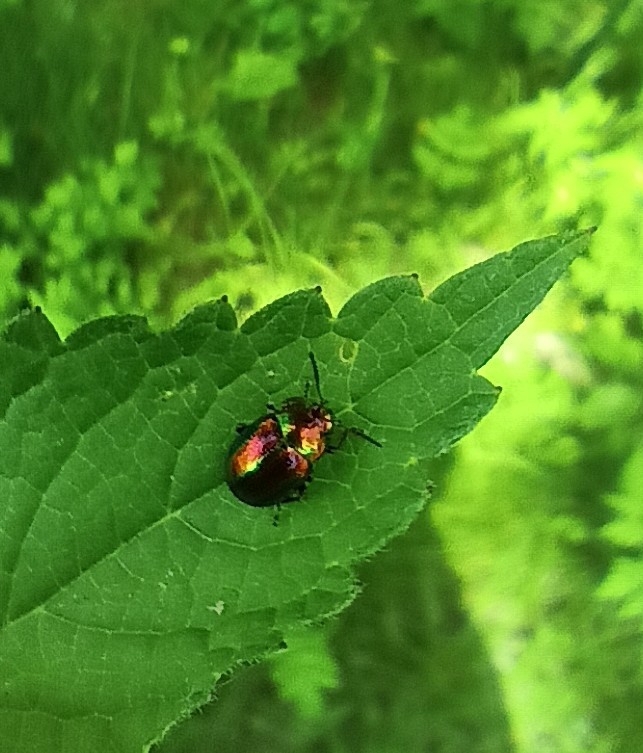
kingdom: Animalia
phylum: Arthropoda
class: Insecta
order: Coleoptera
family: Chrysomelidae
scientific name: Chrysomelidae
